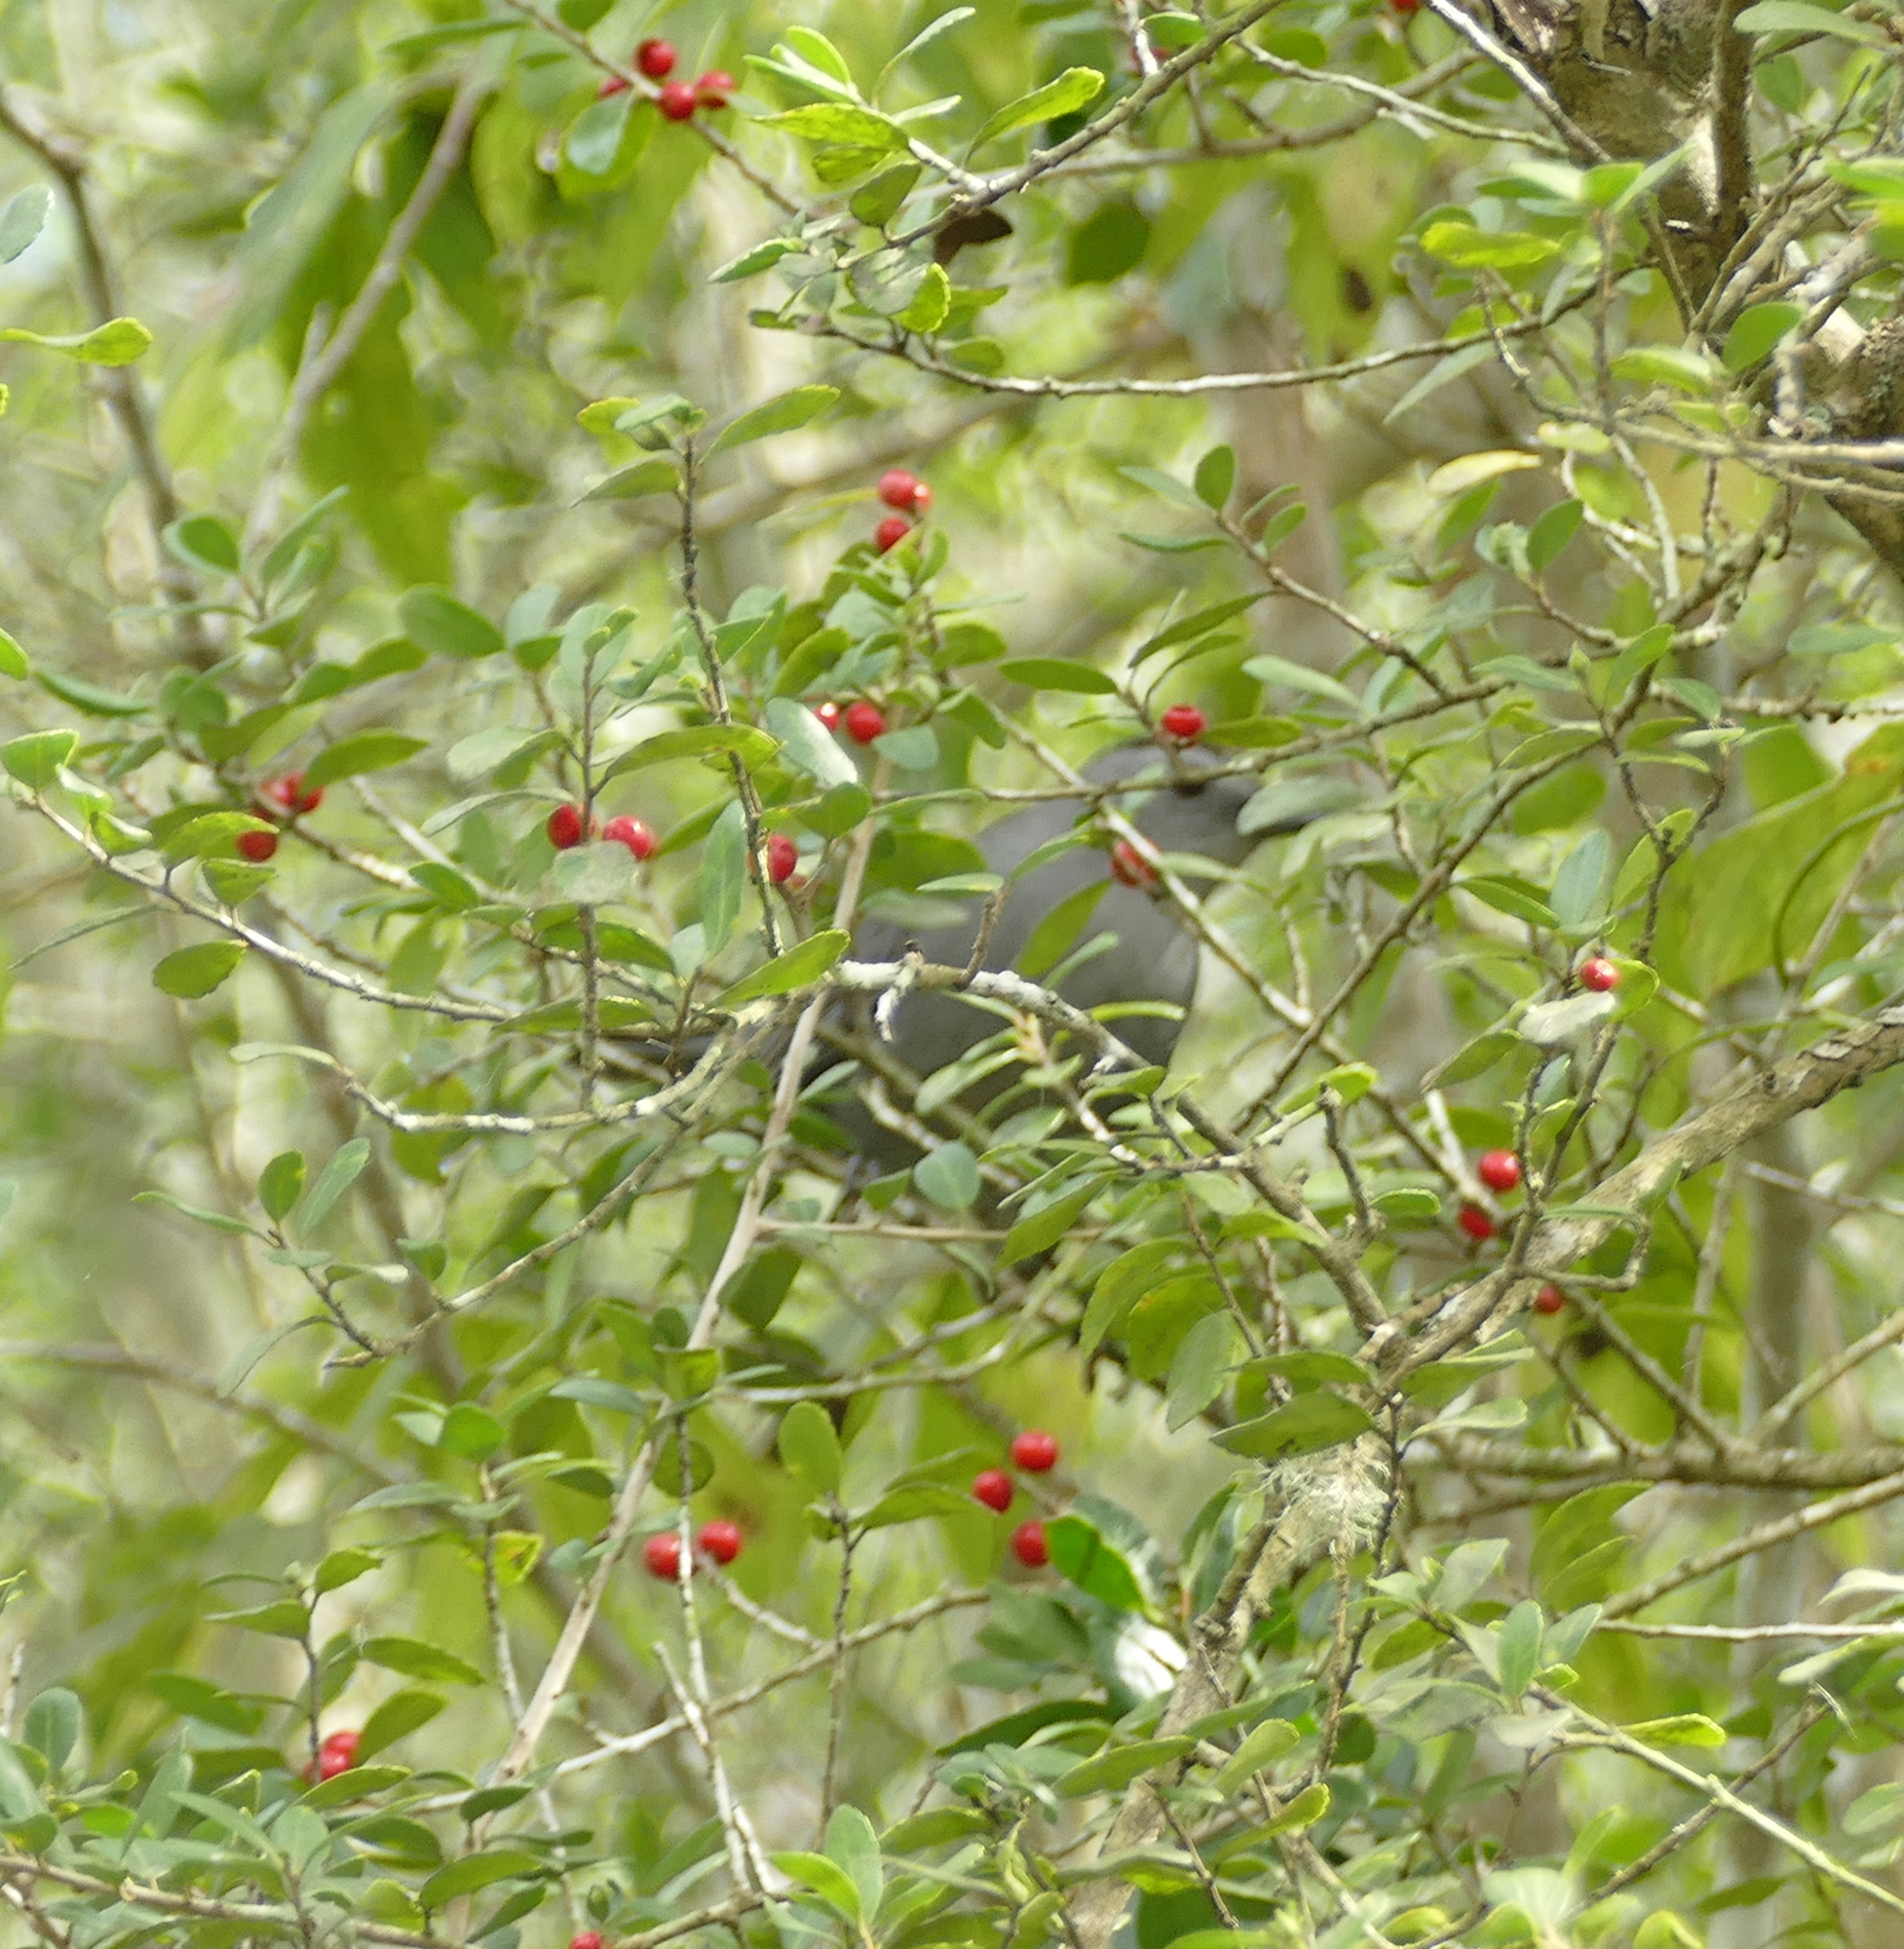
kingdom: Plantae
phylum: Tracheophyta
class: Magnoliopsida
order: Aquifoliales
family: Aquifoliaceae
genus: Ilex
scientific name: Ilex vomitoria
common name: Yaupon holly
